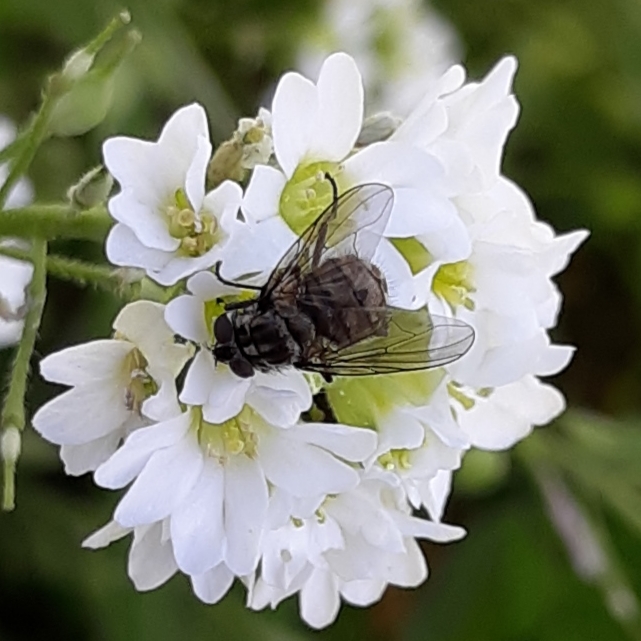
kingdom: Animalia
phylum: Arthropoda
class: Insecta
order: Diptera
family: Muscidae
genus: Stomoxys
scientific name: Stomoxys calcitrans
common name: Stable fly
